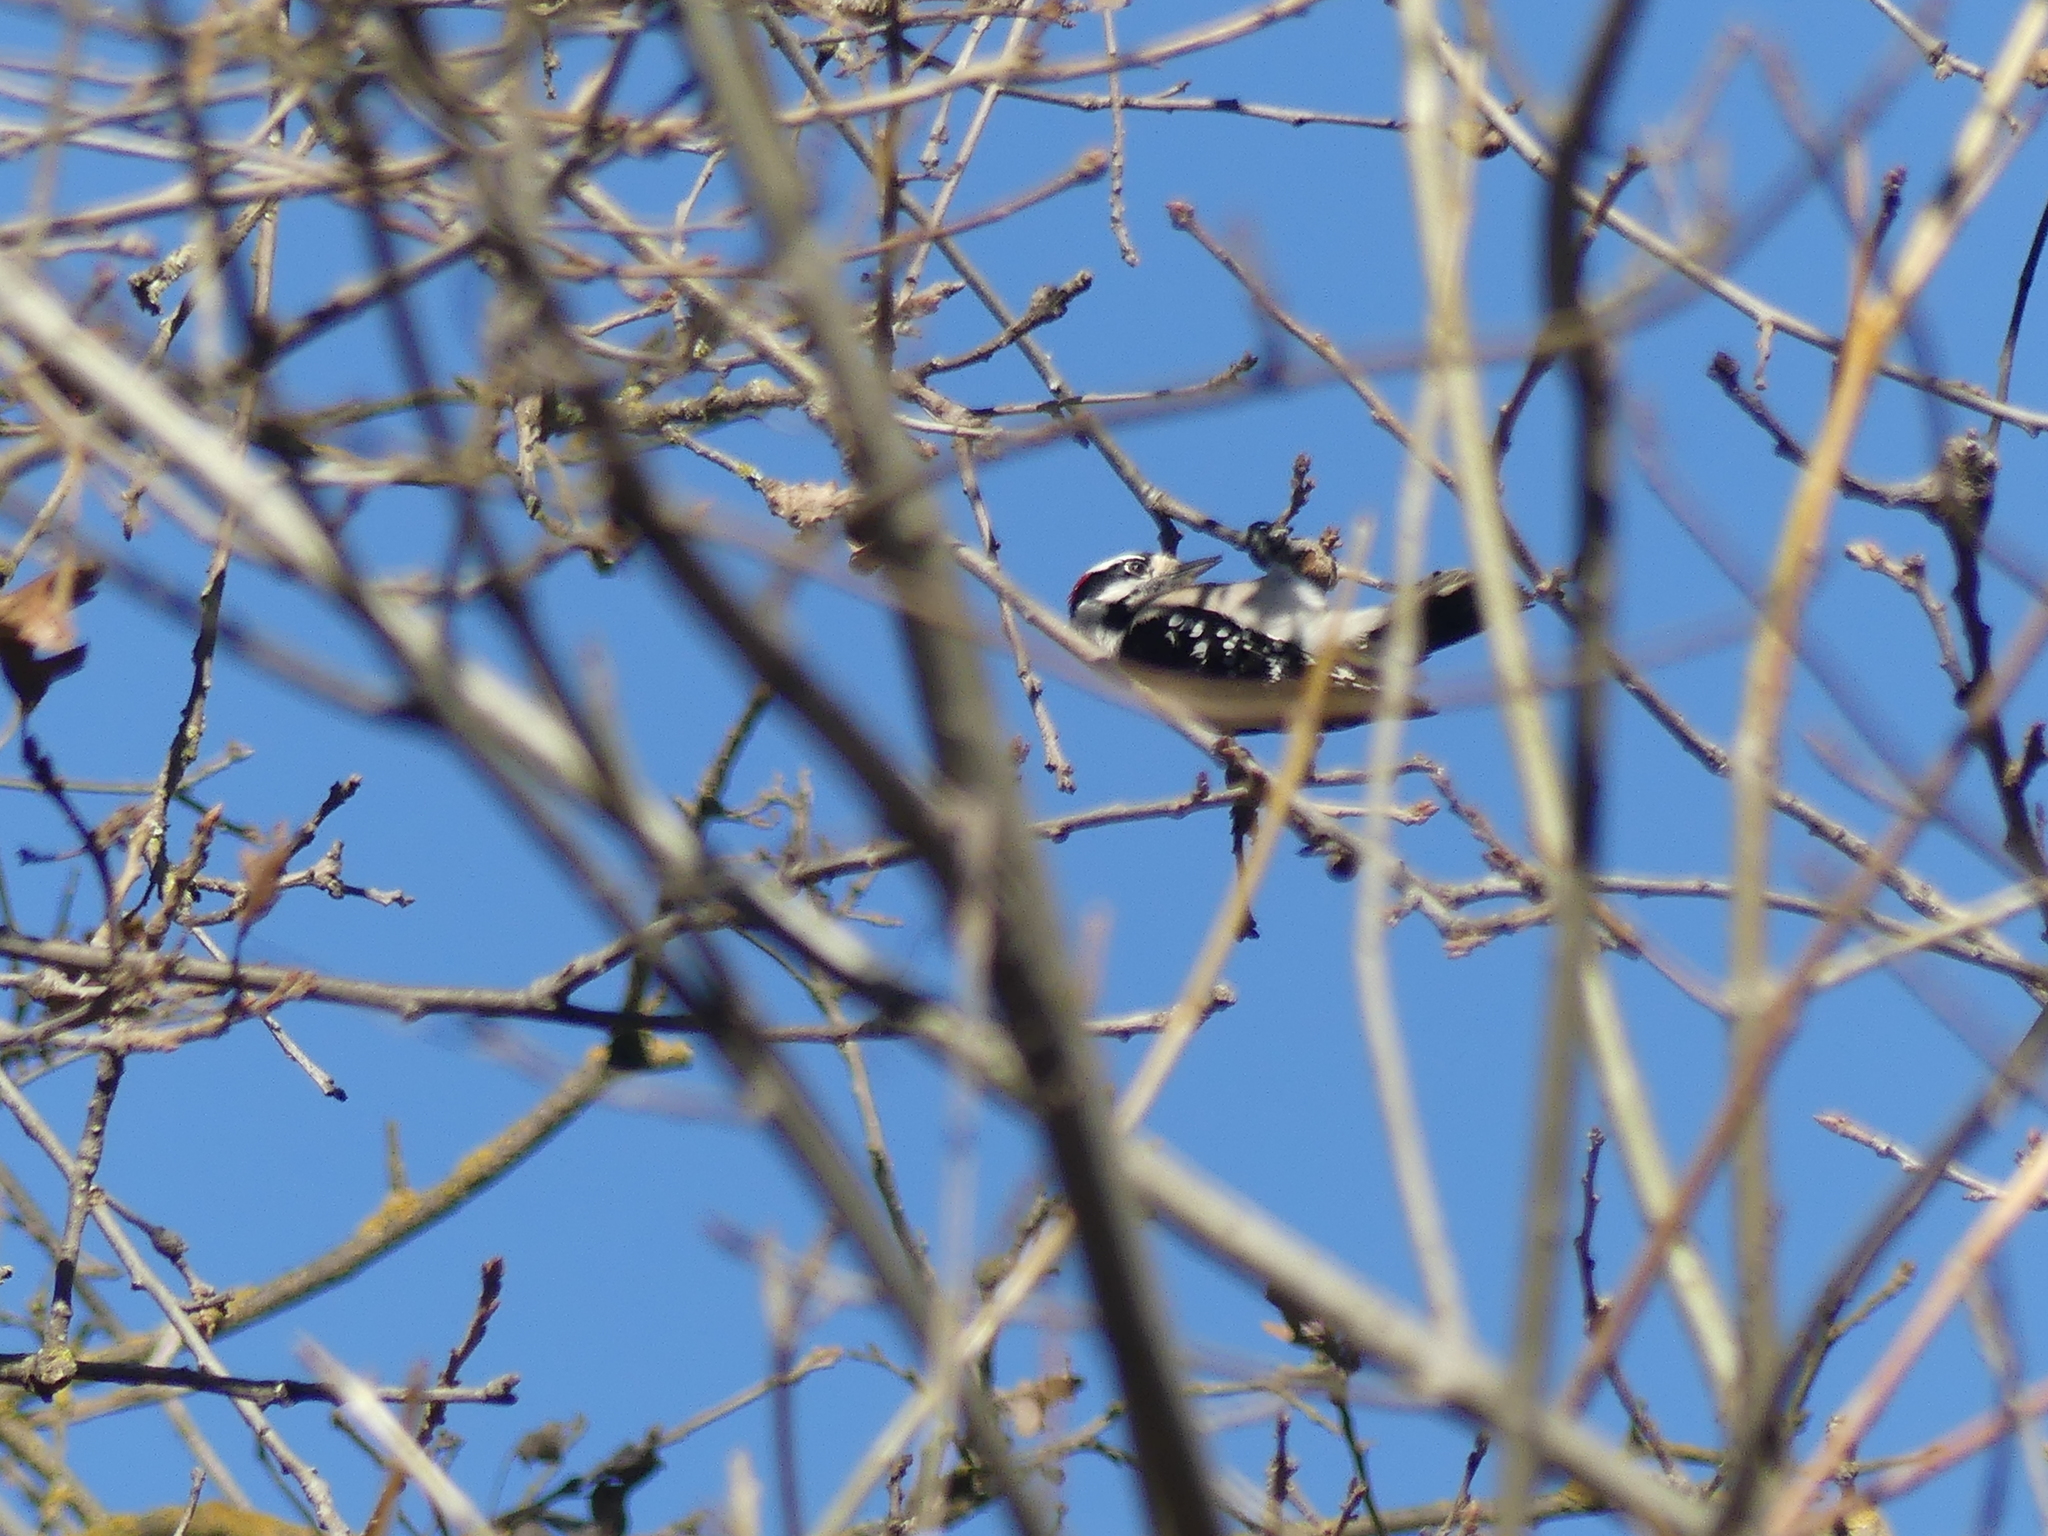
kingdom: Animalia
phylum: Chordata
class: Aves
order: Piciformes
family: Picidae
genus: Dryobates
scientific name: Dryobates pubescens
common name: Downy woodpecker
